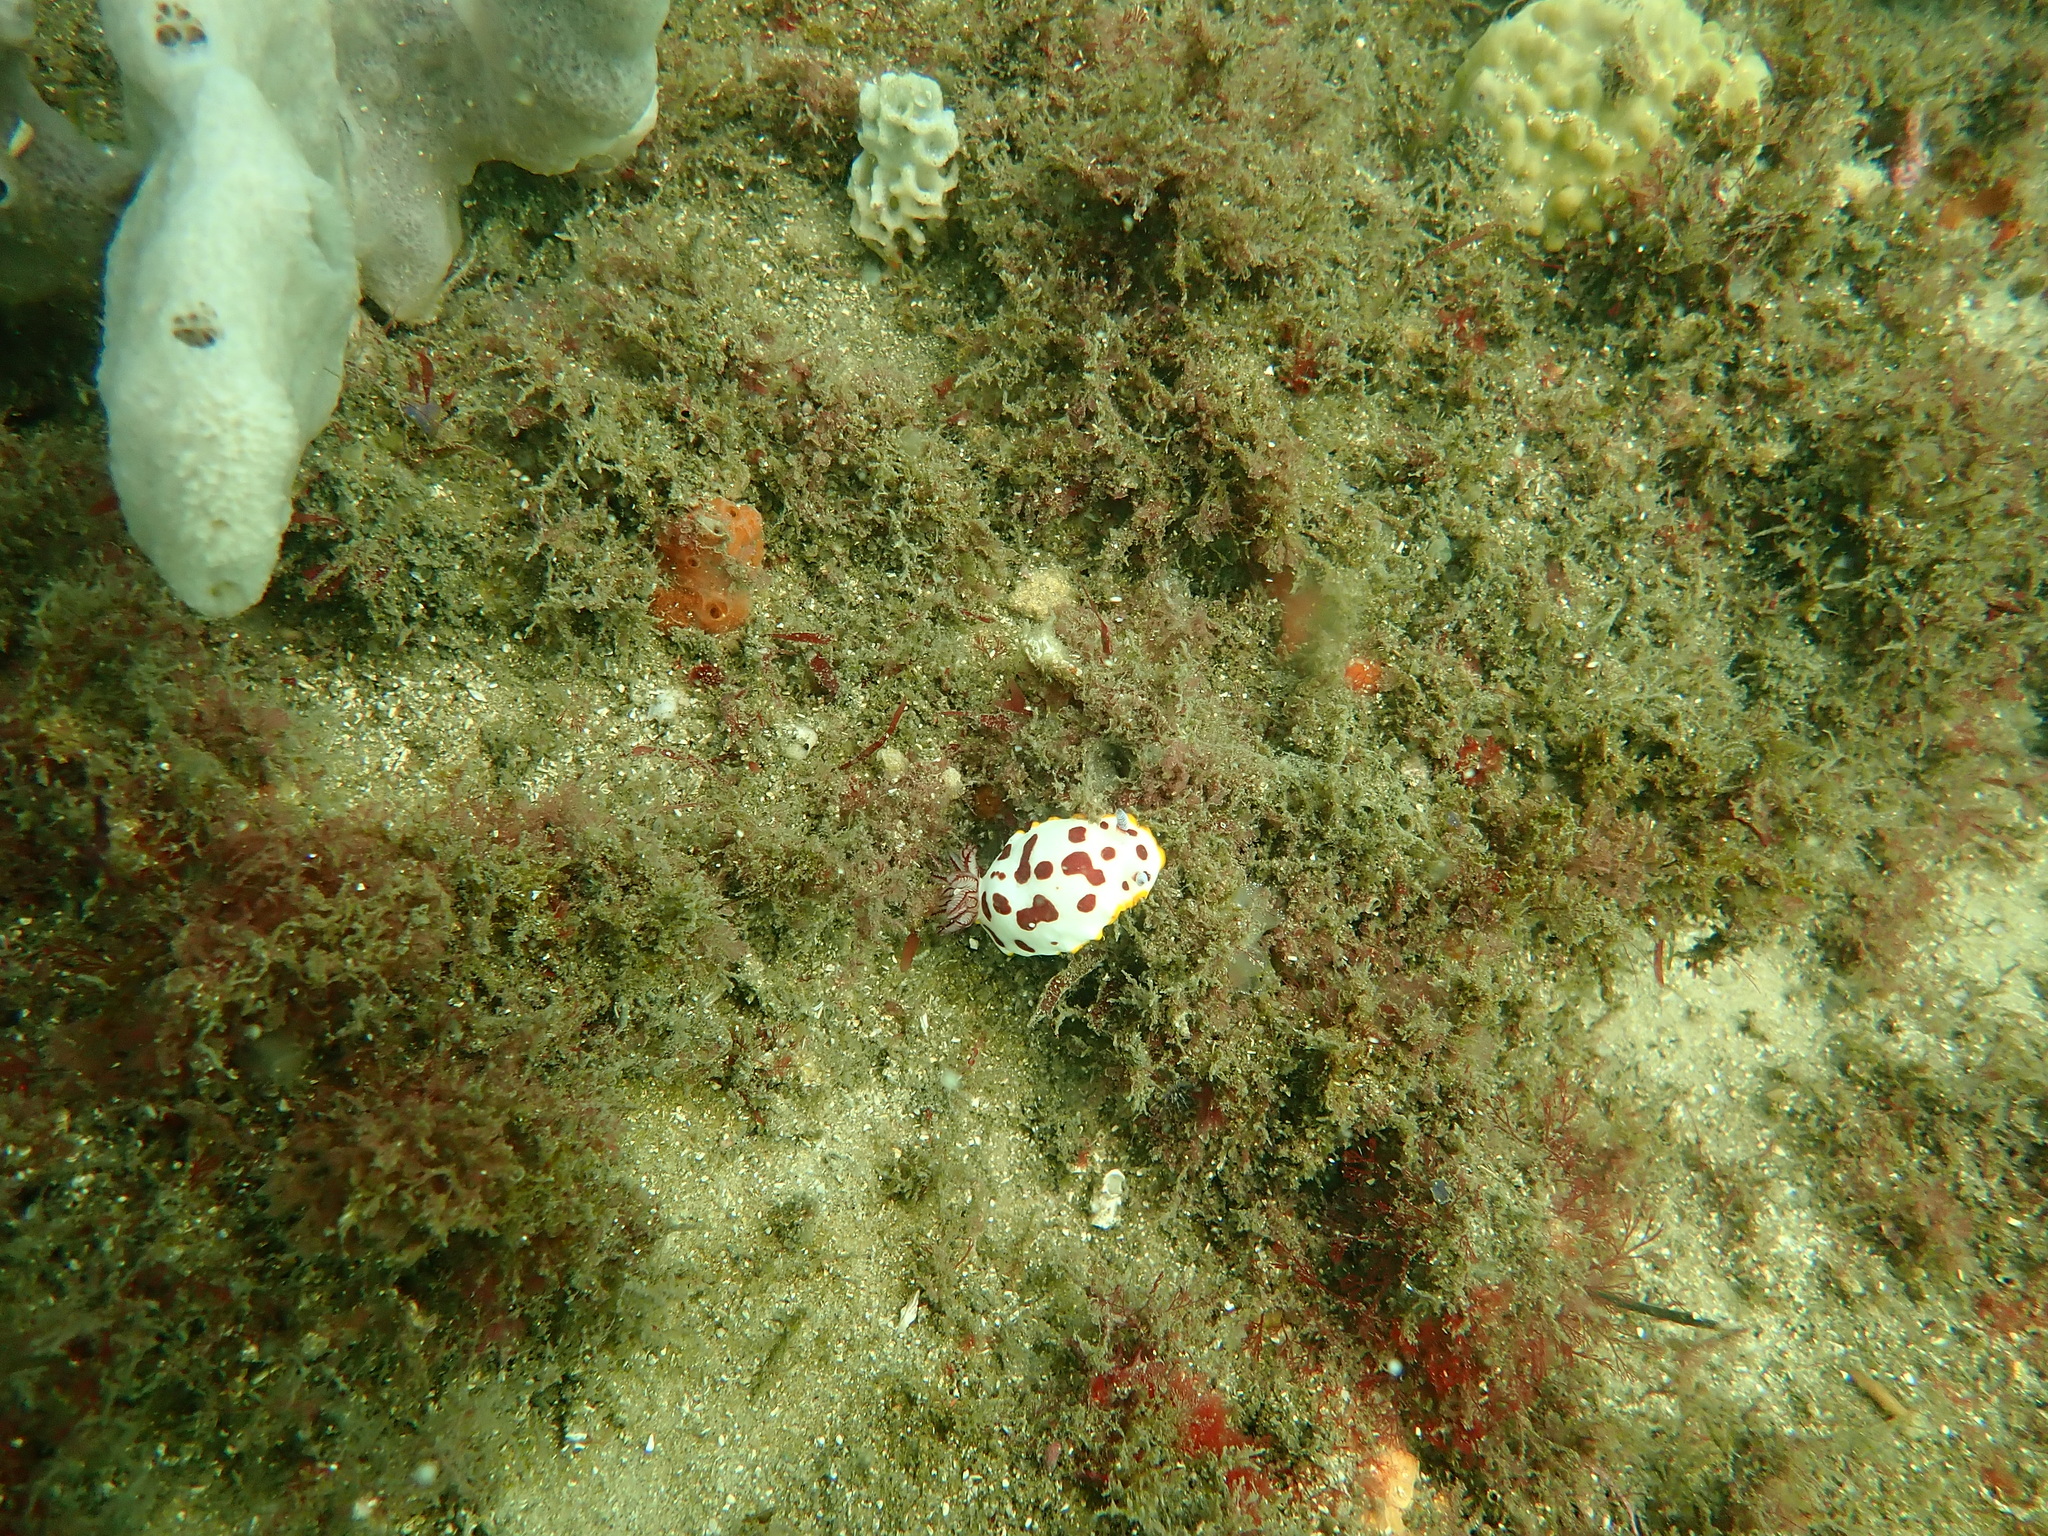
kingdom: Animalia
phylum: Mollusca
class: Gastropoda
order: Nudibranchia
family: Chromodorididae
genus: Goniobranchus
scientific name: Goniobranchus splendidus
